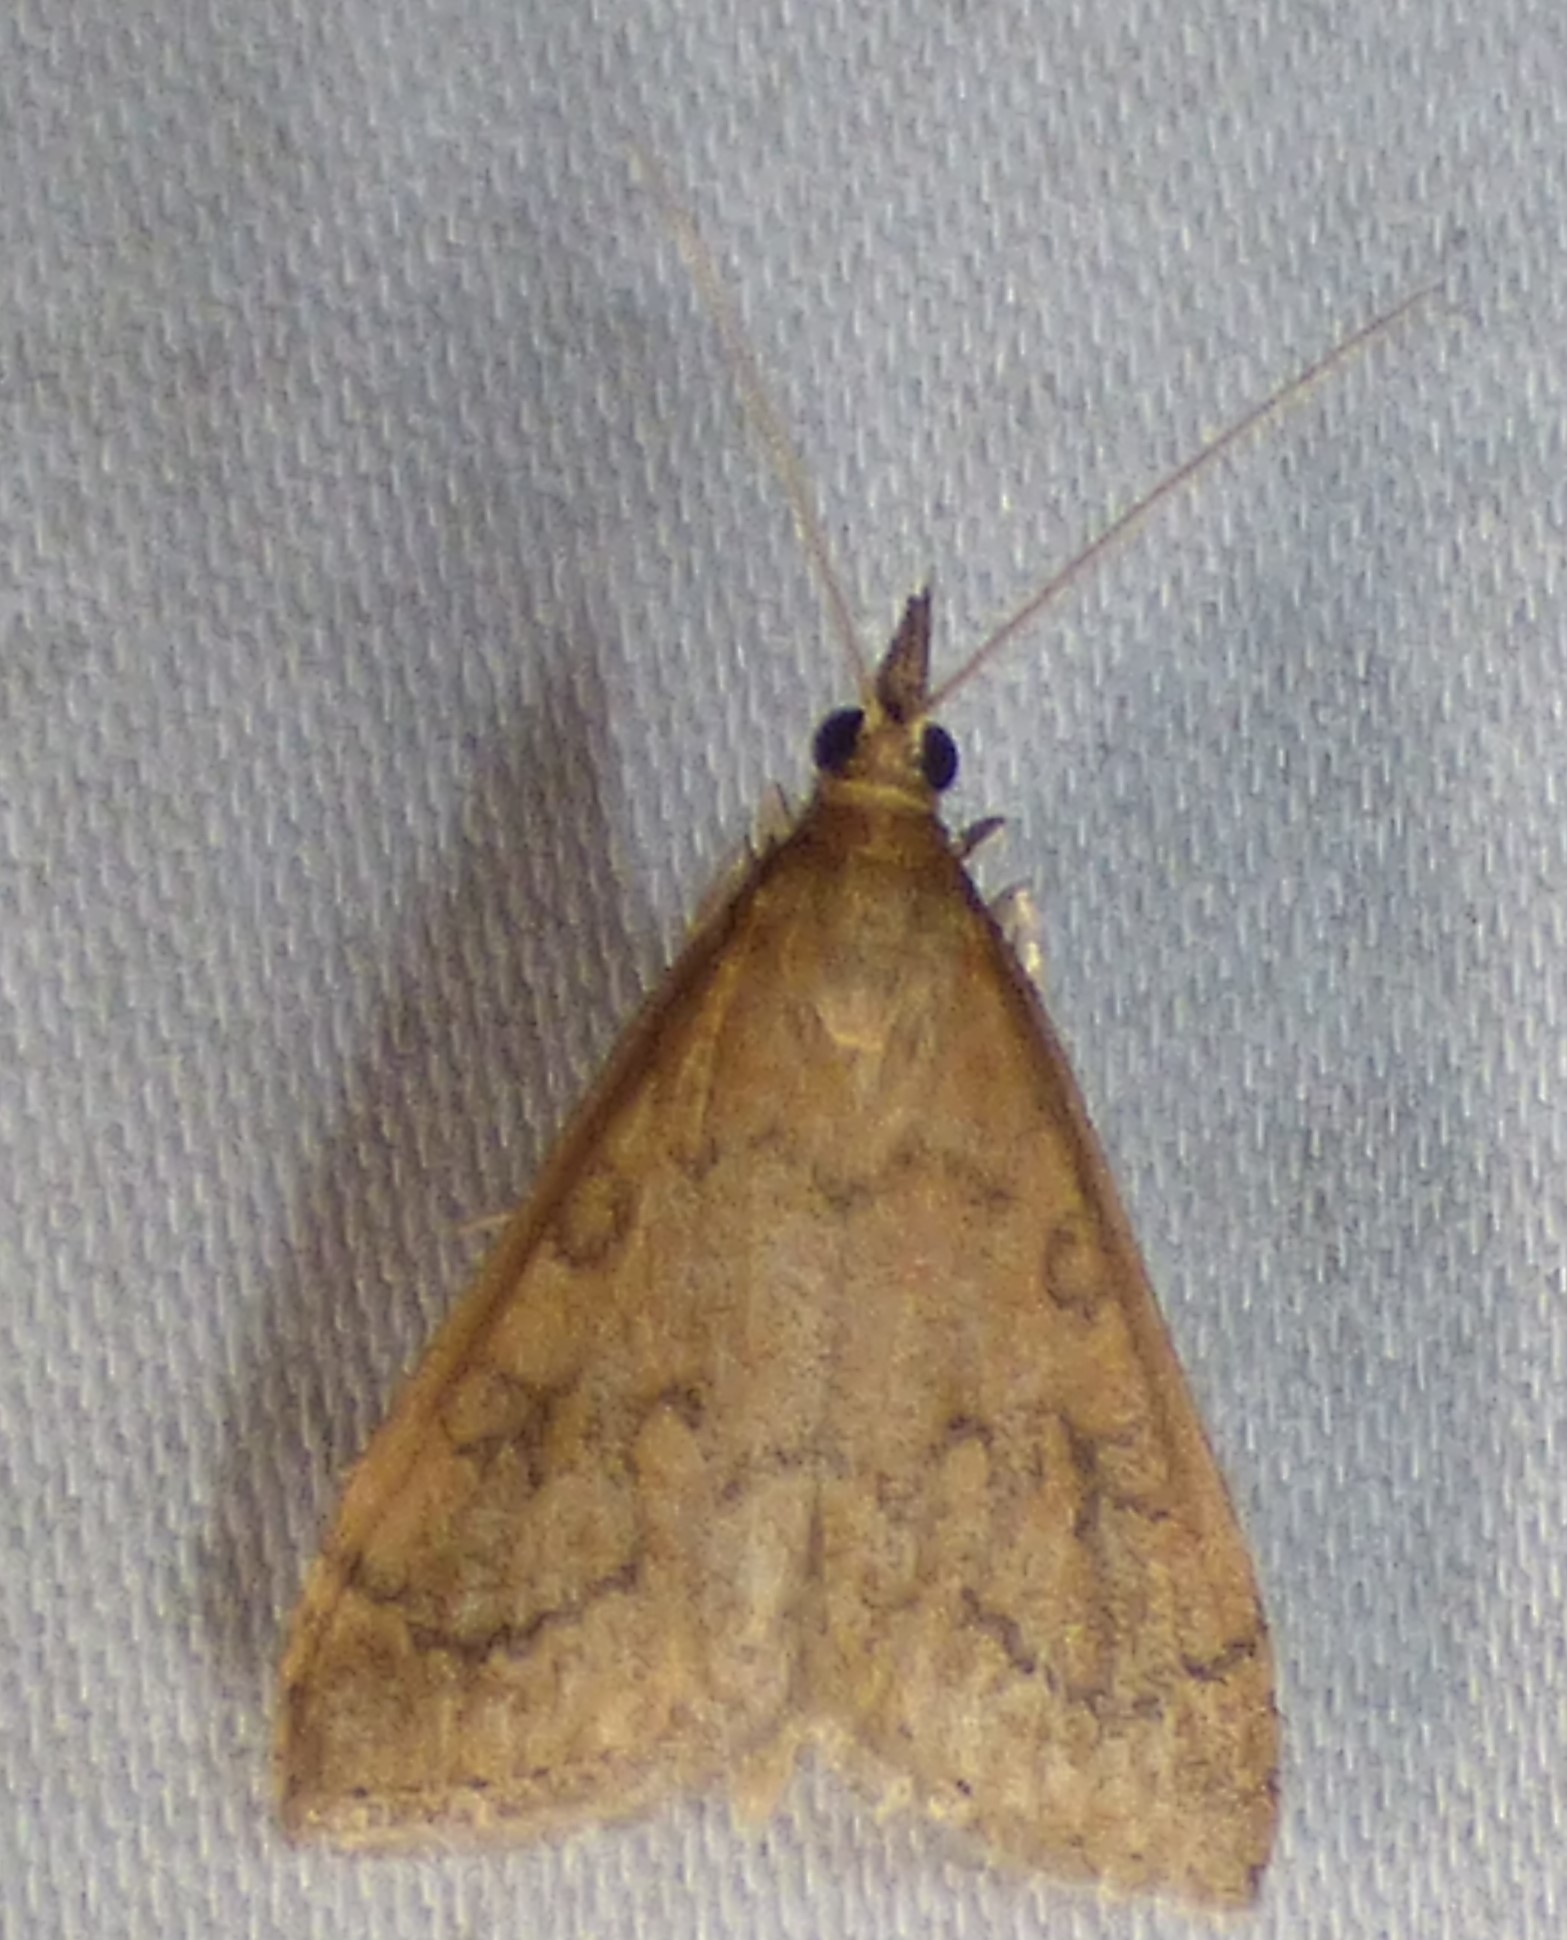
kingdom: Animalia
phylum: Arthropoda
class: Insecta
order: Lepidoptera
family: Crambidae
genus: Udea
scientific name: Udea rubigalis
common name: Celery leaftier moth
